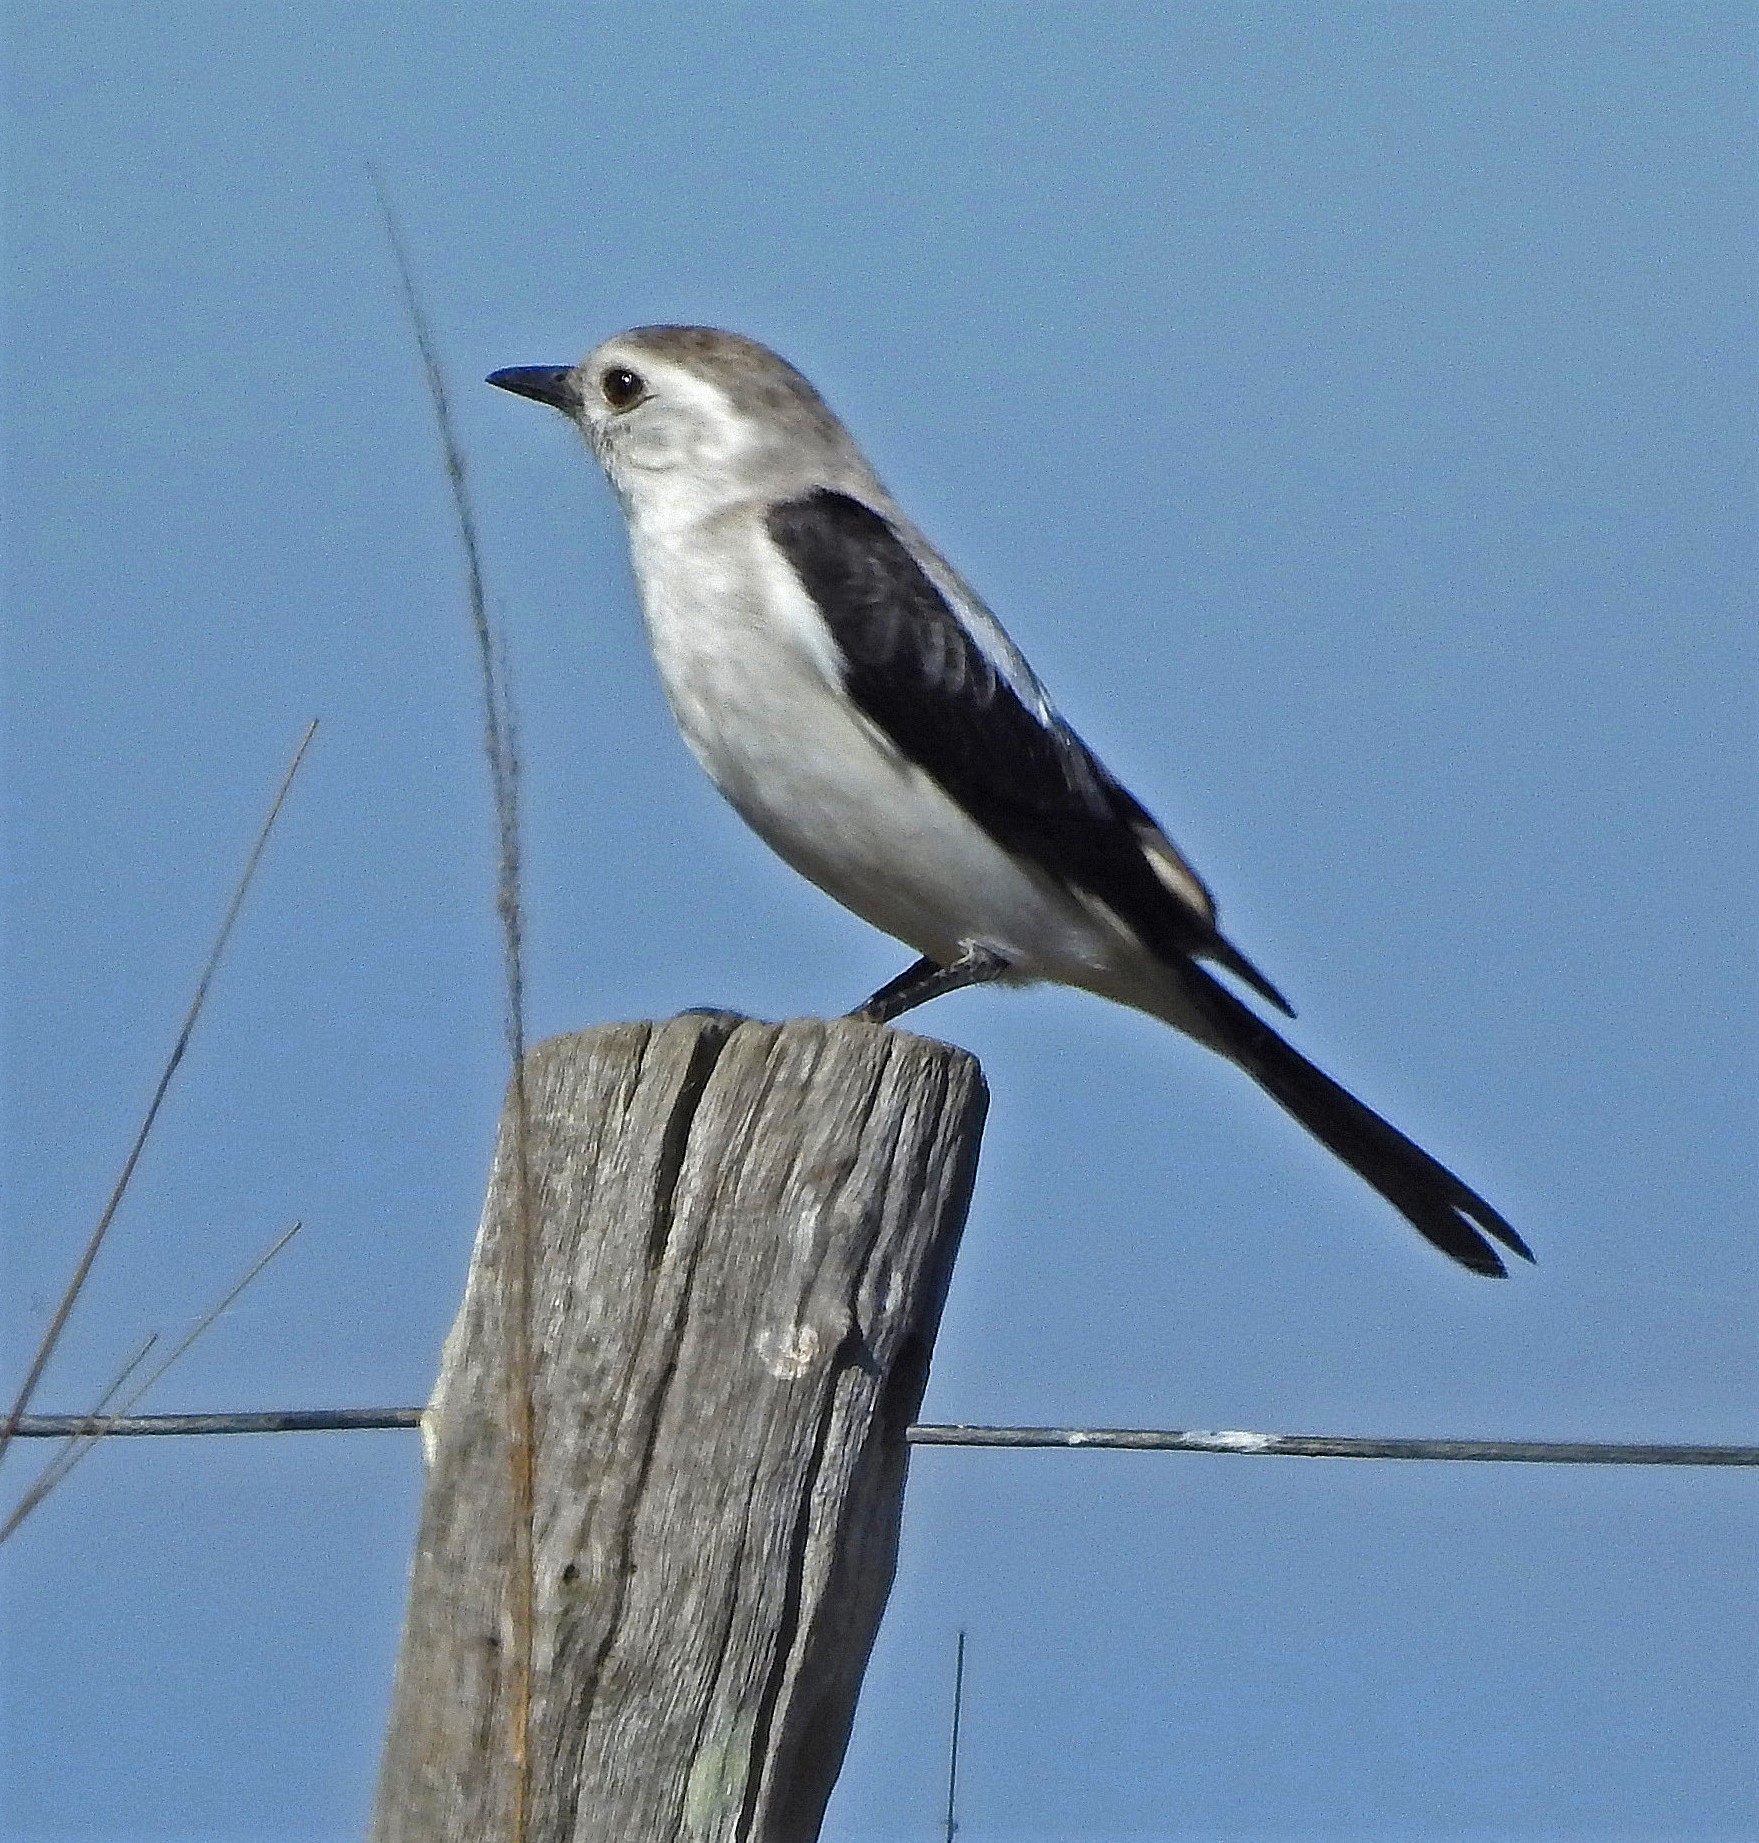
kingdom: Animalia
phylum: Chordata
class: Aves
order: Passeriformes
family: Tyrannidae
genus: Heteroxolmis
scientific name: Heteroxolmis dominicana
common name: Black-and-white monjita
